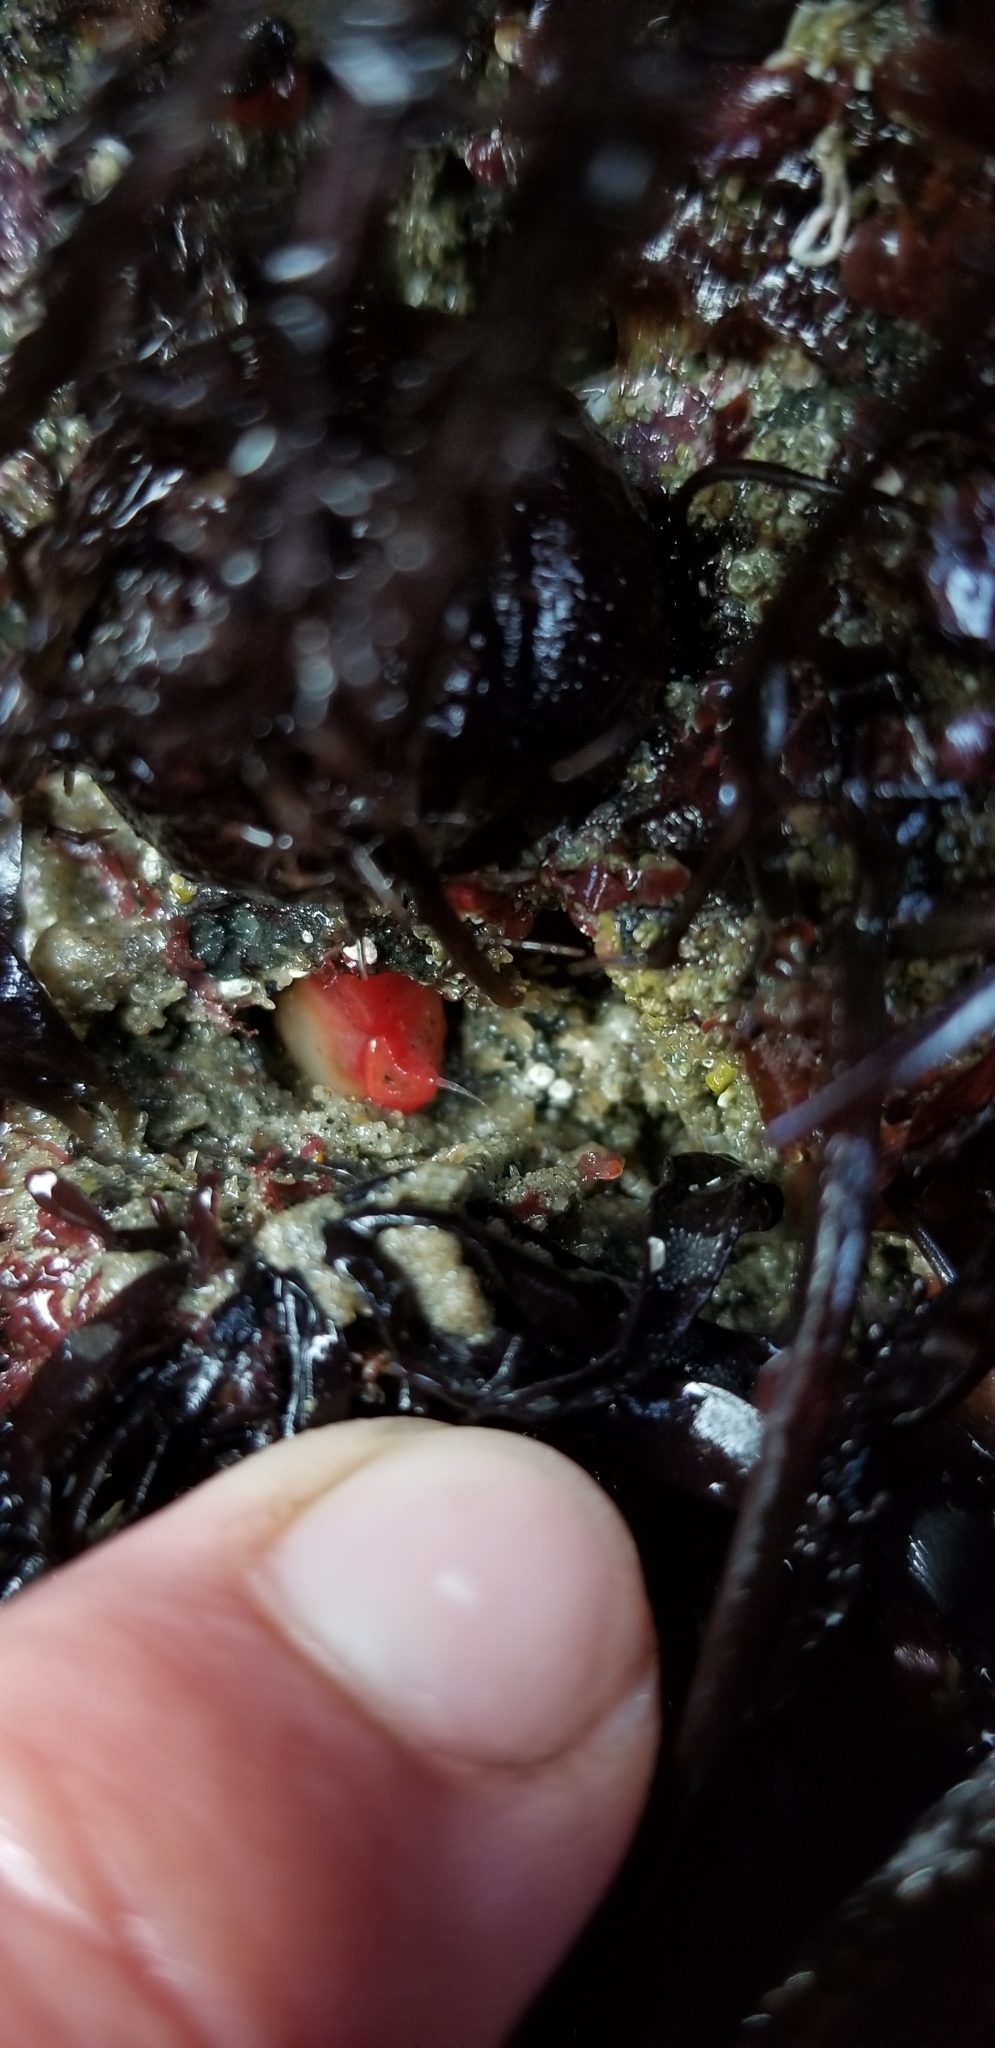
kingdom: Animalia
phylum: Mollusca
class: Bivalvia
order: Adapedonta
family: Hiatellidae
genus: Hiatella
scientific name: Hiatella arctica
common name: Arctic hiatella
